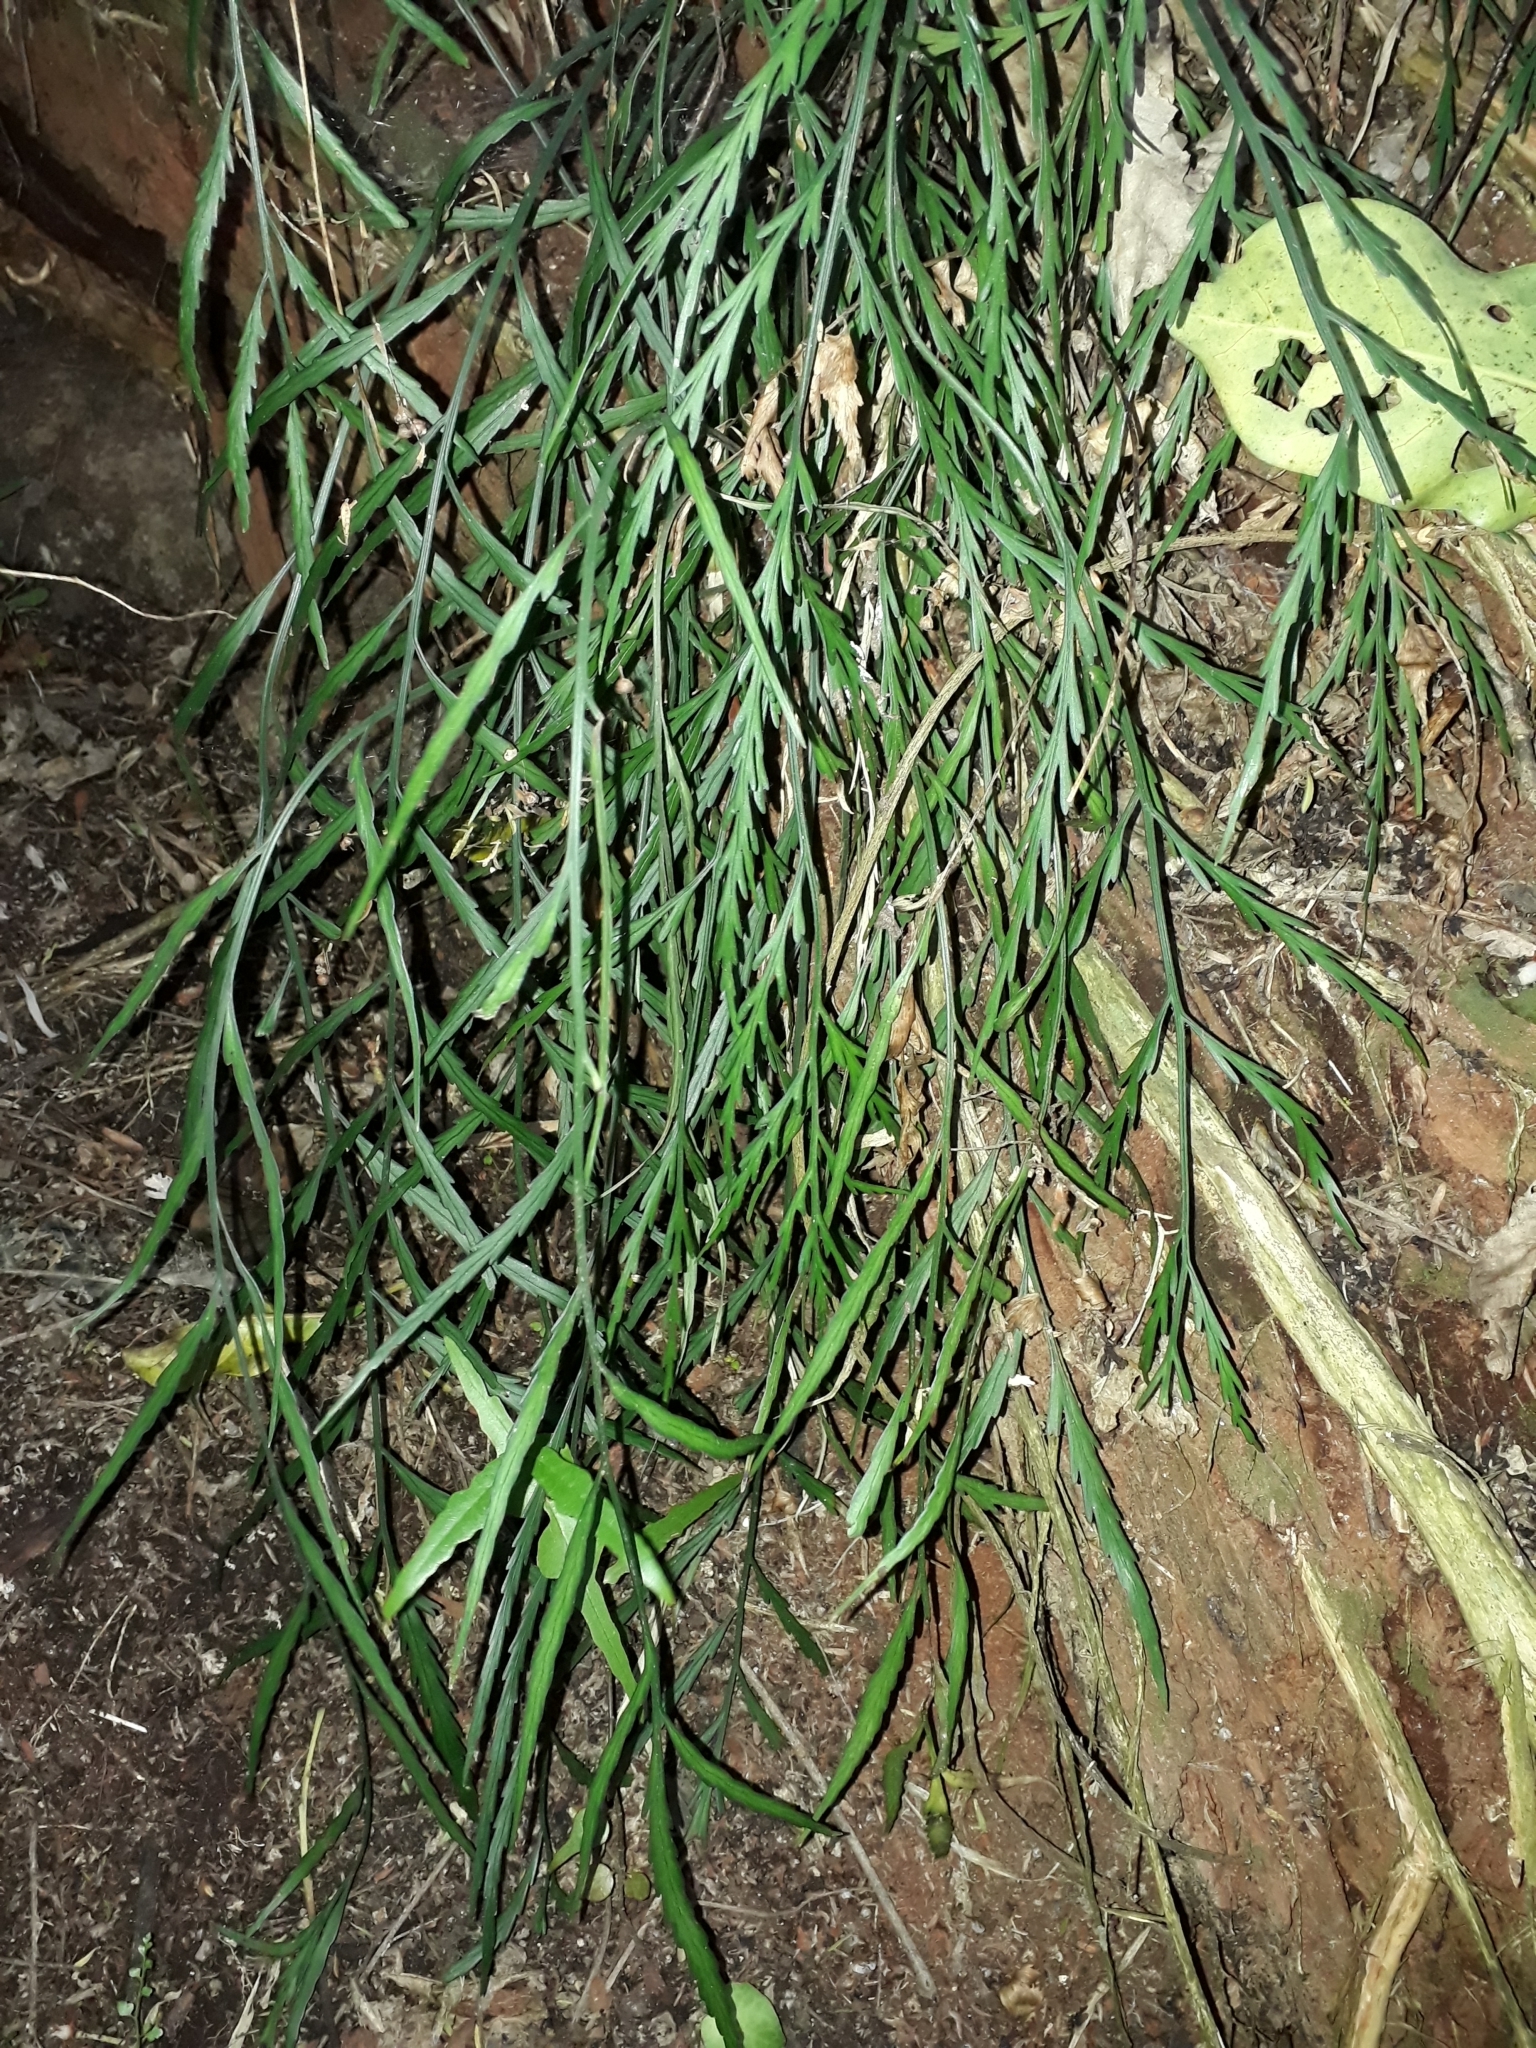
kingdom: Plantae
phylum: Tracheophyta
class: Polypodiopsida
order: Polypodiales
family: Aspleniaceae
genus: Asplenium
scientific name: Asplenium flaccidum
